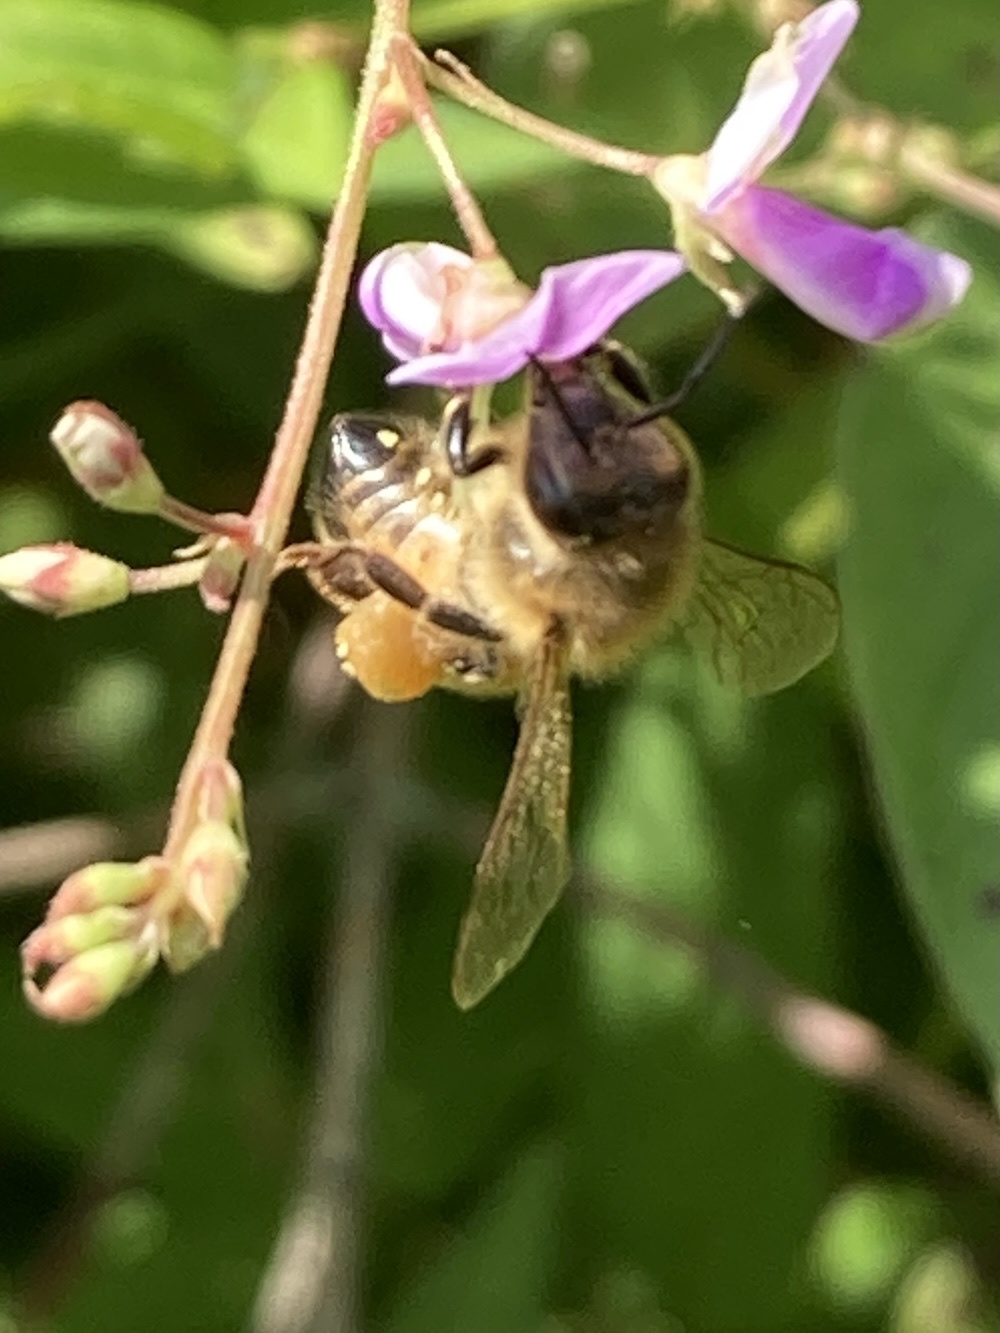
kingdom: Animalia
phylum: Arthropoda
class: Insecta
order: Hymenoptera
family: Apidae
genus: Apis
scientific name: Apis mellifera
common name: Honey bee
